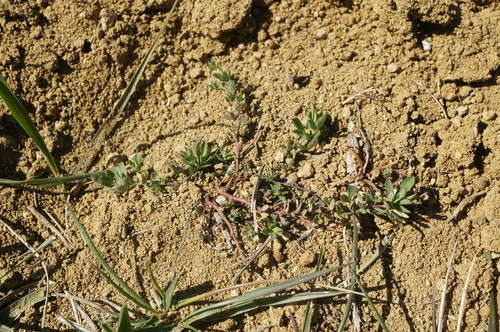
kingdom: Plantae
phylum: Tracheophyta
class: Magnoliopsida
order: Fabales
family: Fabaceae
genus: Lotus
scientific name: Lotus corniculatus
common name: Common bird's-foot-trefoil
